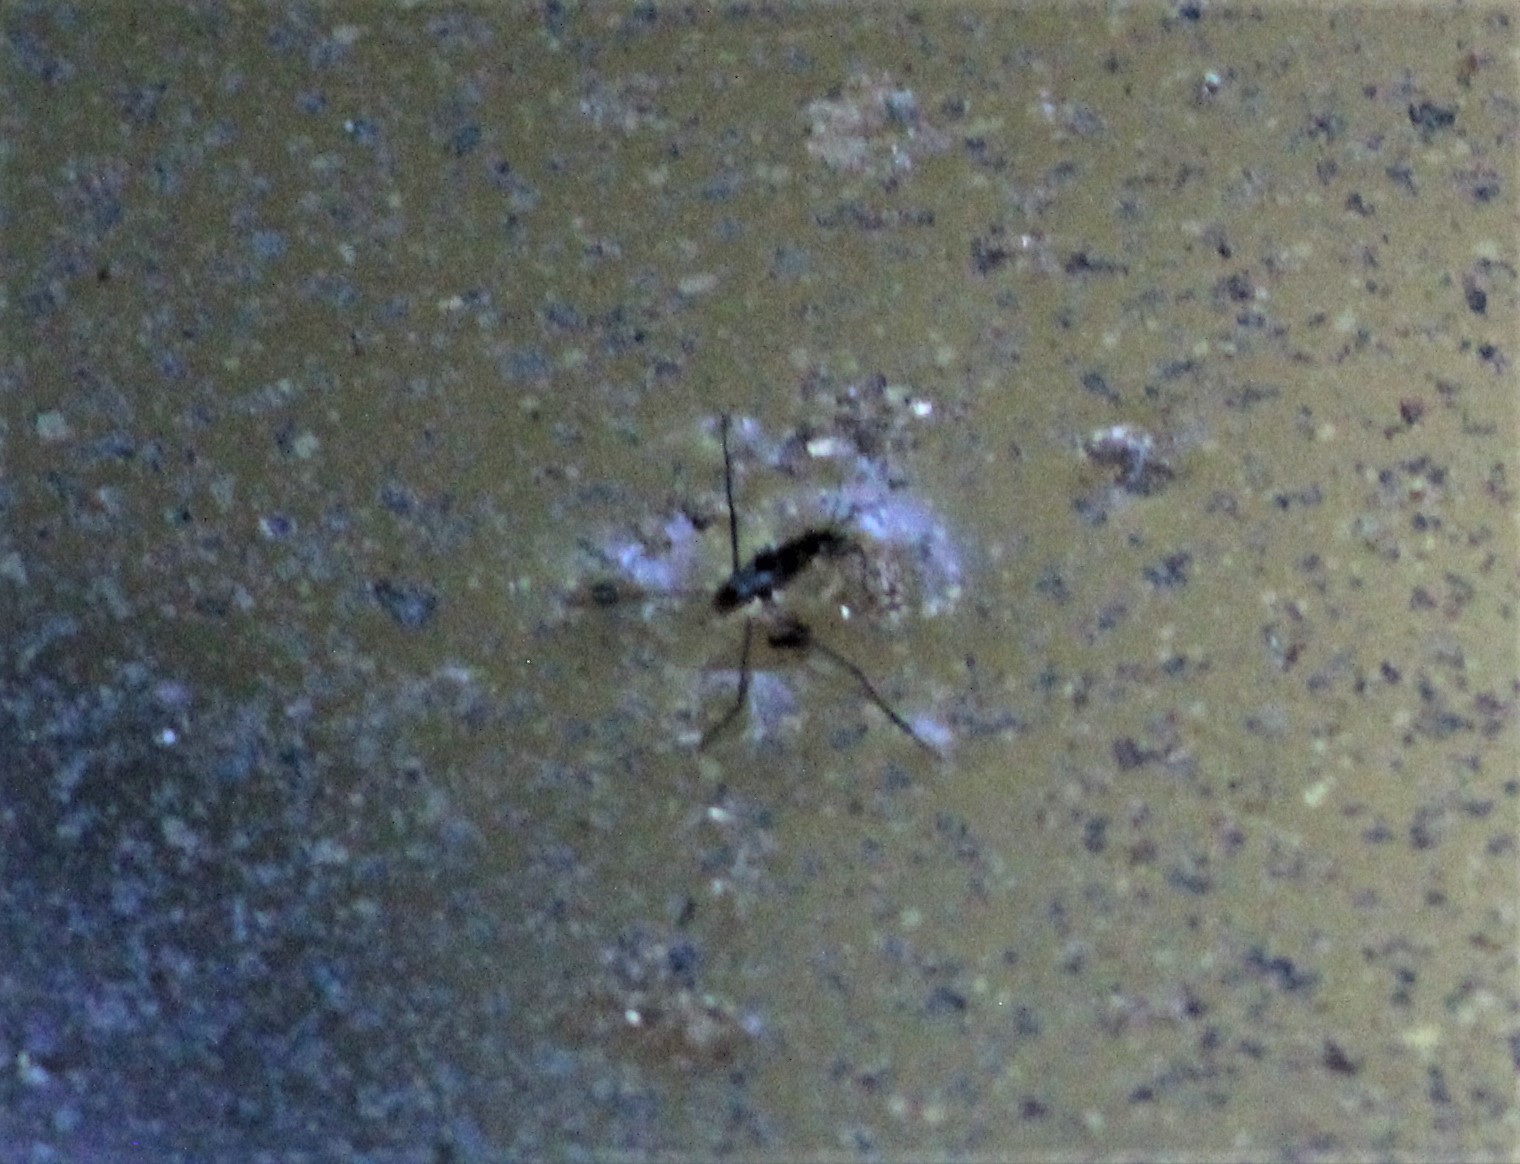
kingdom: Animalia
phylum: Arthropoda
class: Insecta
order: Hemiptera
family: Gerridae
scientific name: Gerridae
